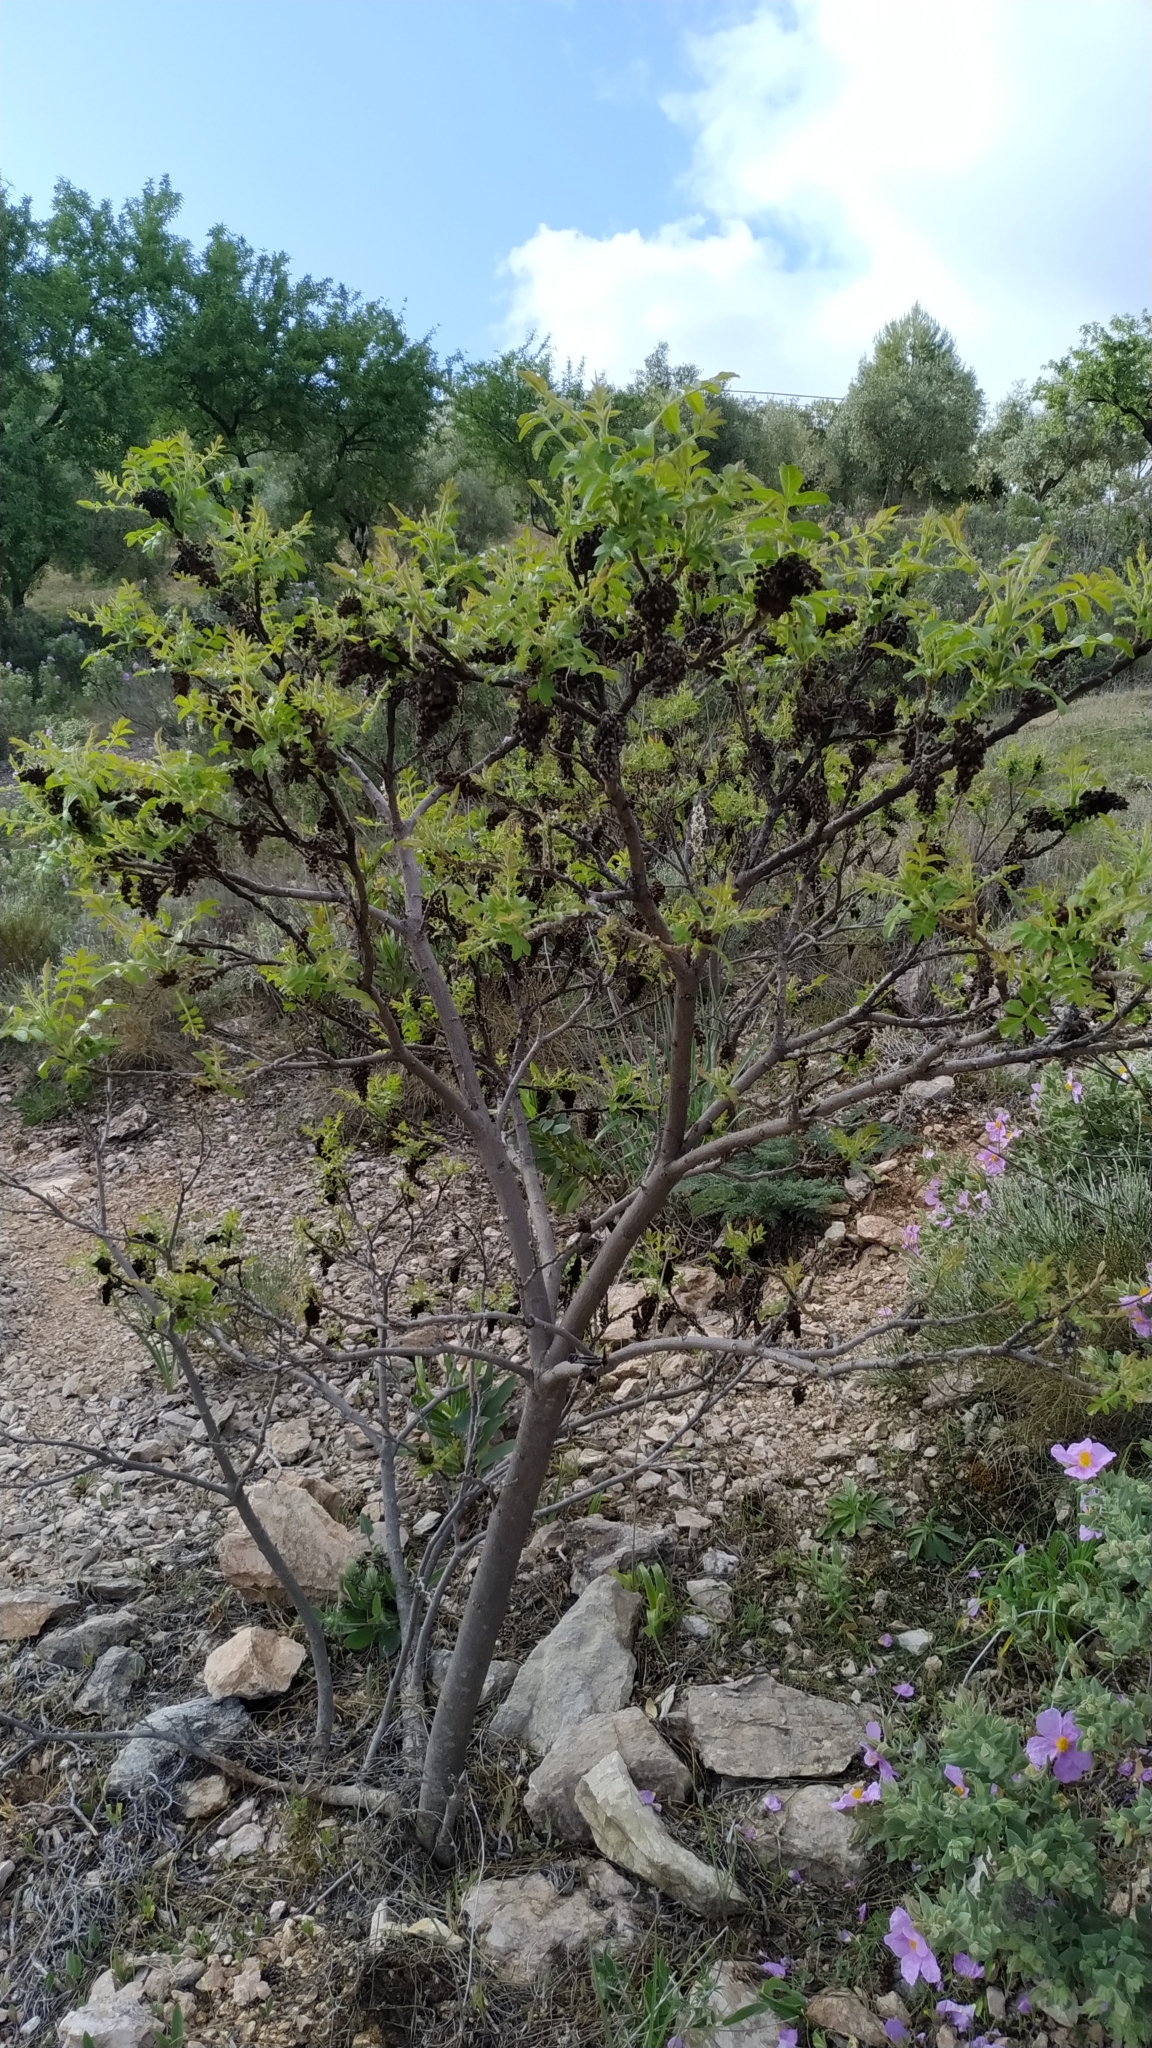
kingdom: Plantae
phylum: Tracheophyta
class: Magnoliopsida
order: Sapindales
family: Anacardiaceae
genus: Rhus
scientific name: Rhus coriaria
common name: Tanner's sumach
